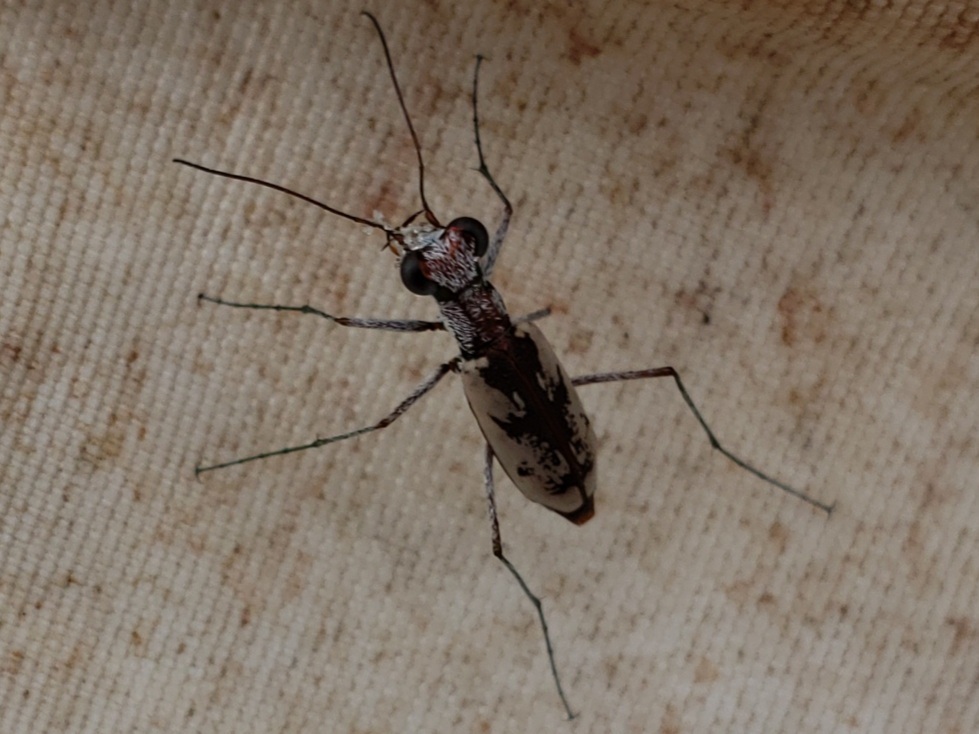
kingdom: Animalia
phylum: Arthropoda
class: Insecta
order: Coleoptera
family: Carabidae
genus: Ellipsoptera
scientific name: Ellipsoptera hirtilabris
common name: Moustached tiger beetle
